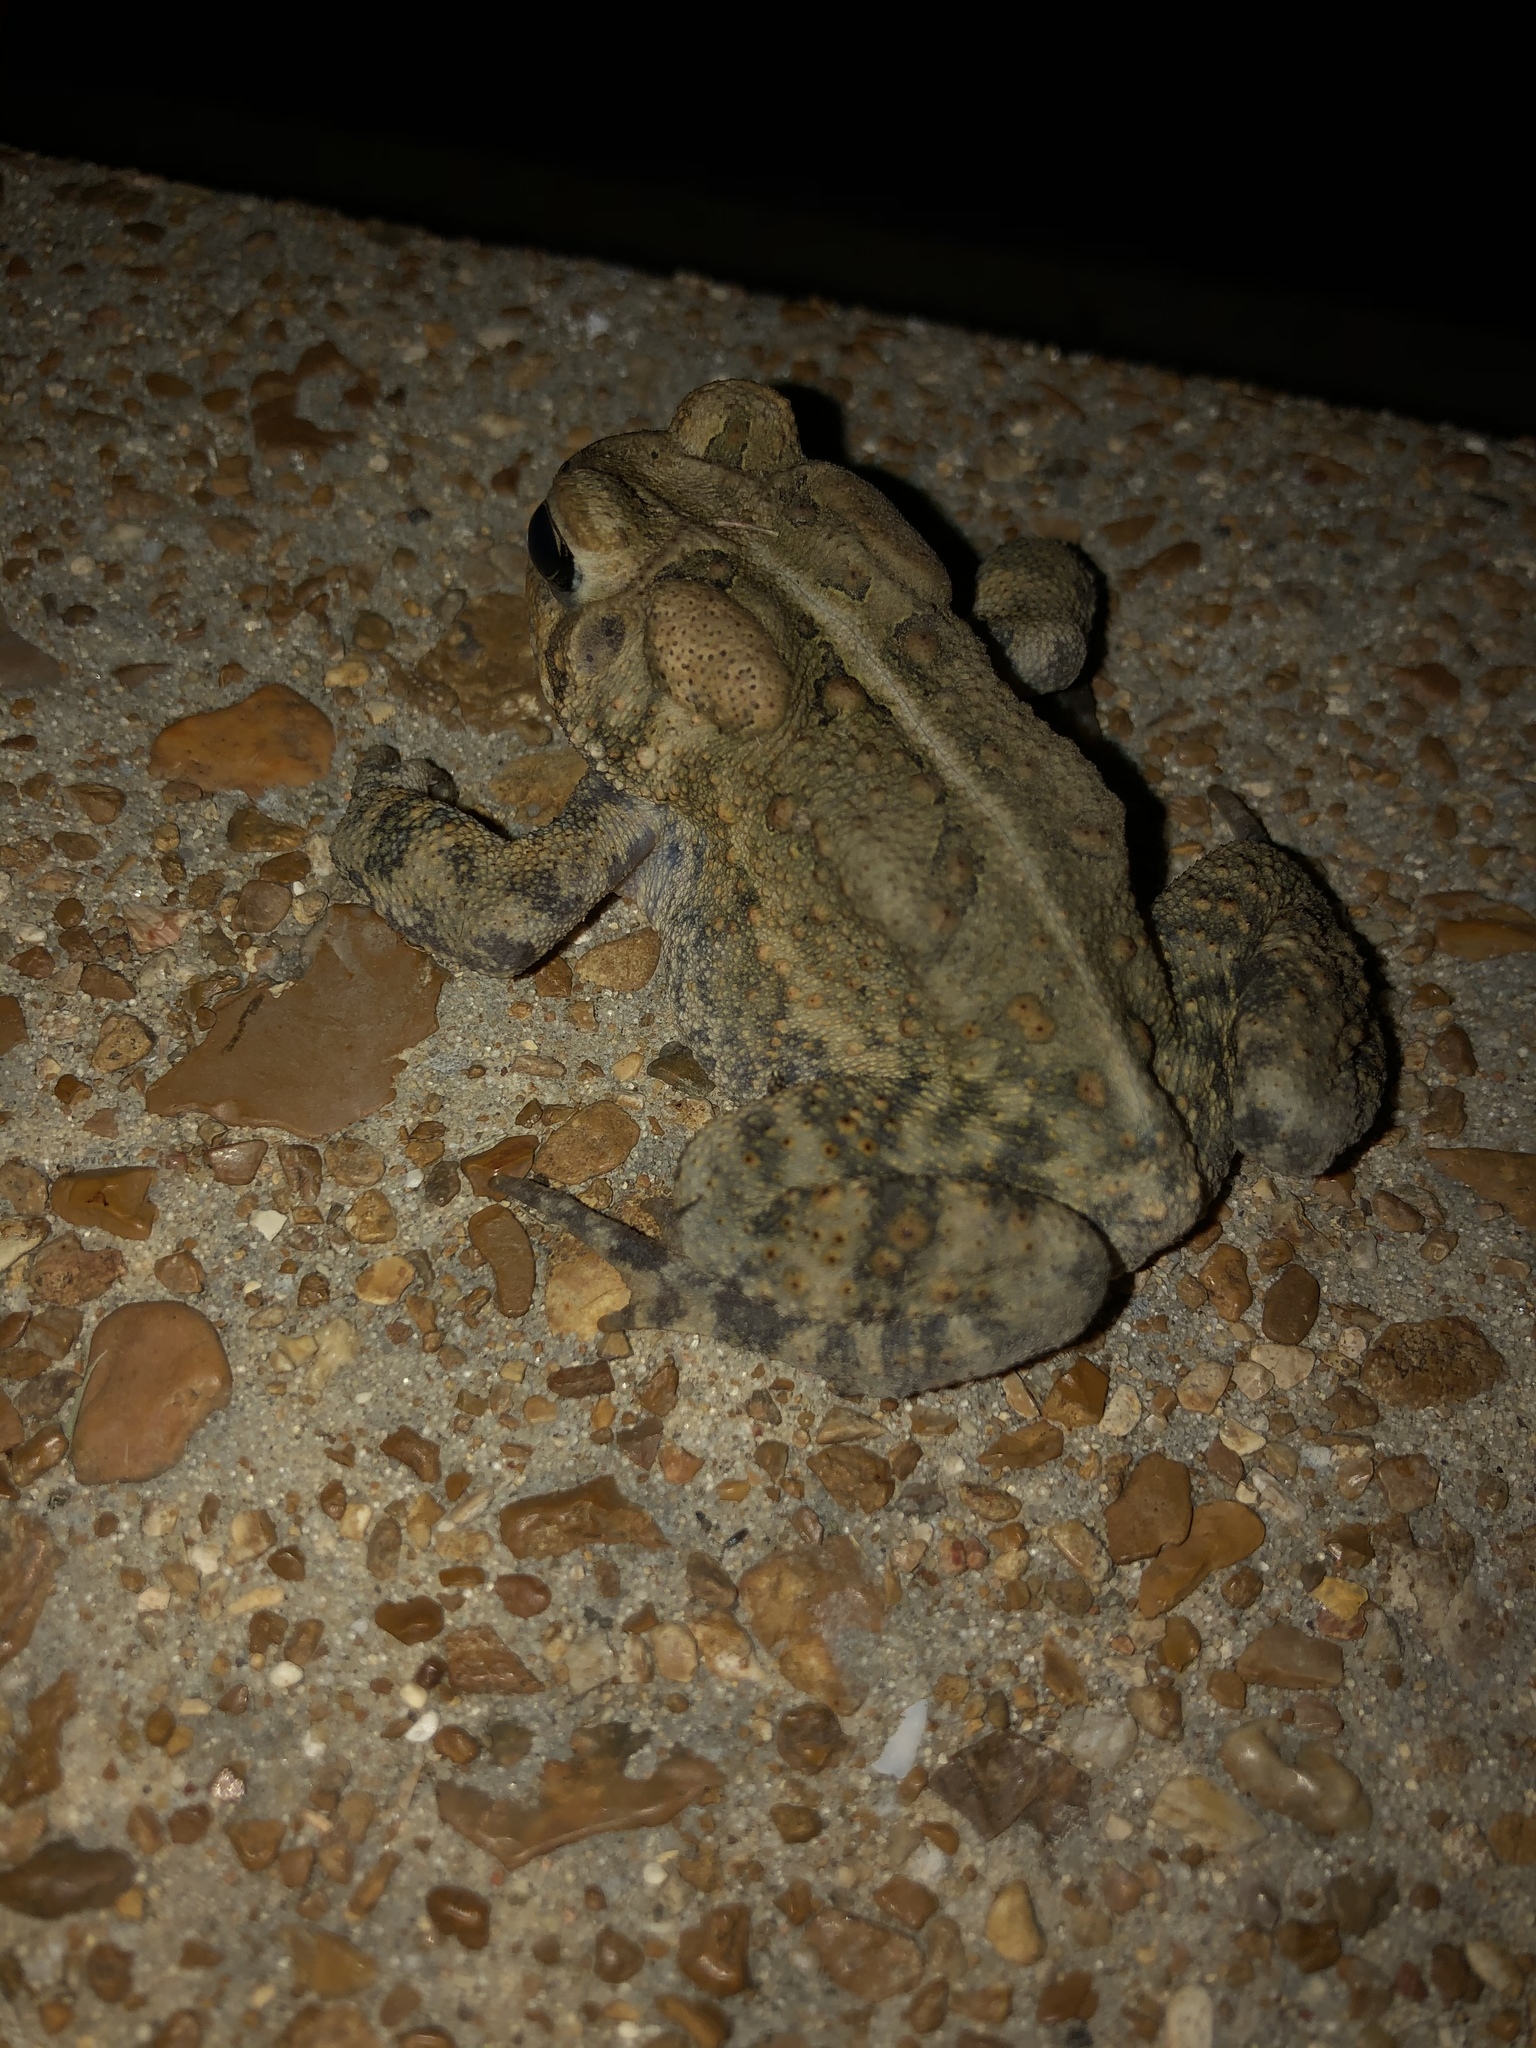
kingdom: Animalia
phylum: Chordata
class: Amphibia
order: Anura
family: Bufonidae
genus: Anaxyrus
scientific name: Anaxyrus americanus
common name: American toad
